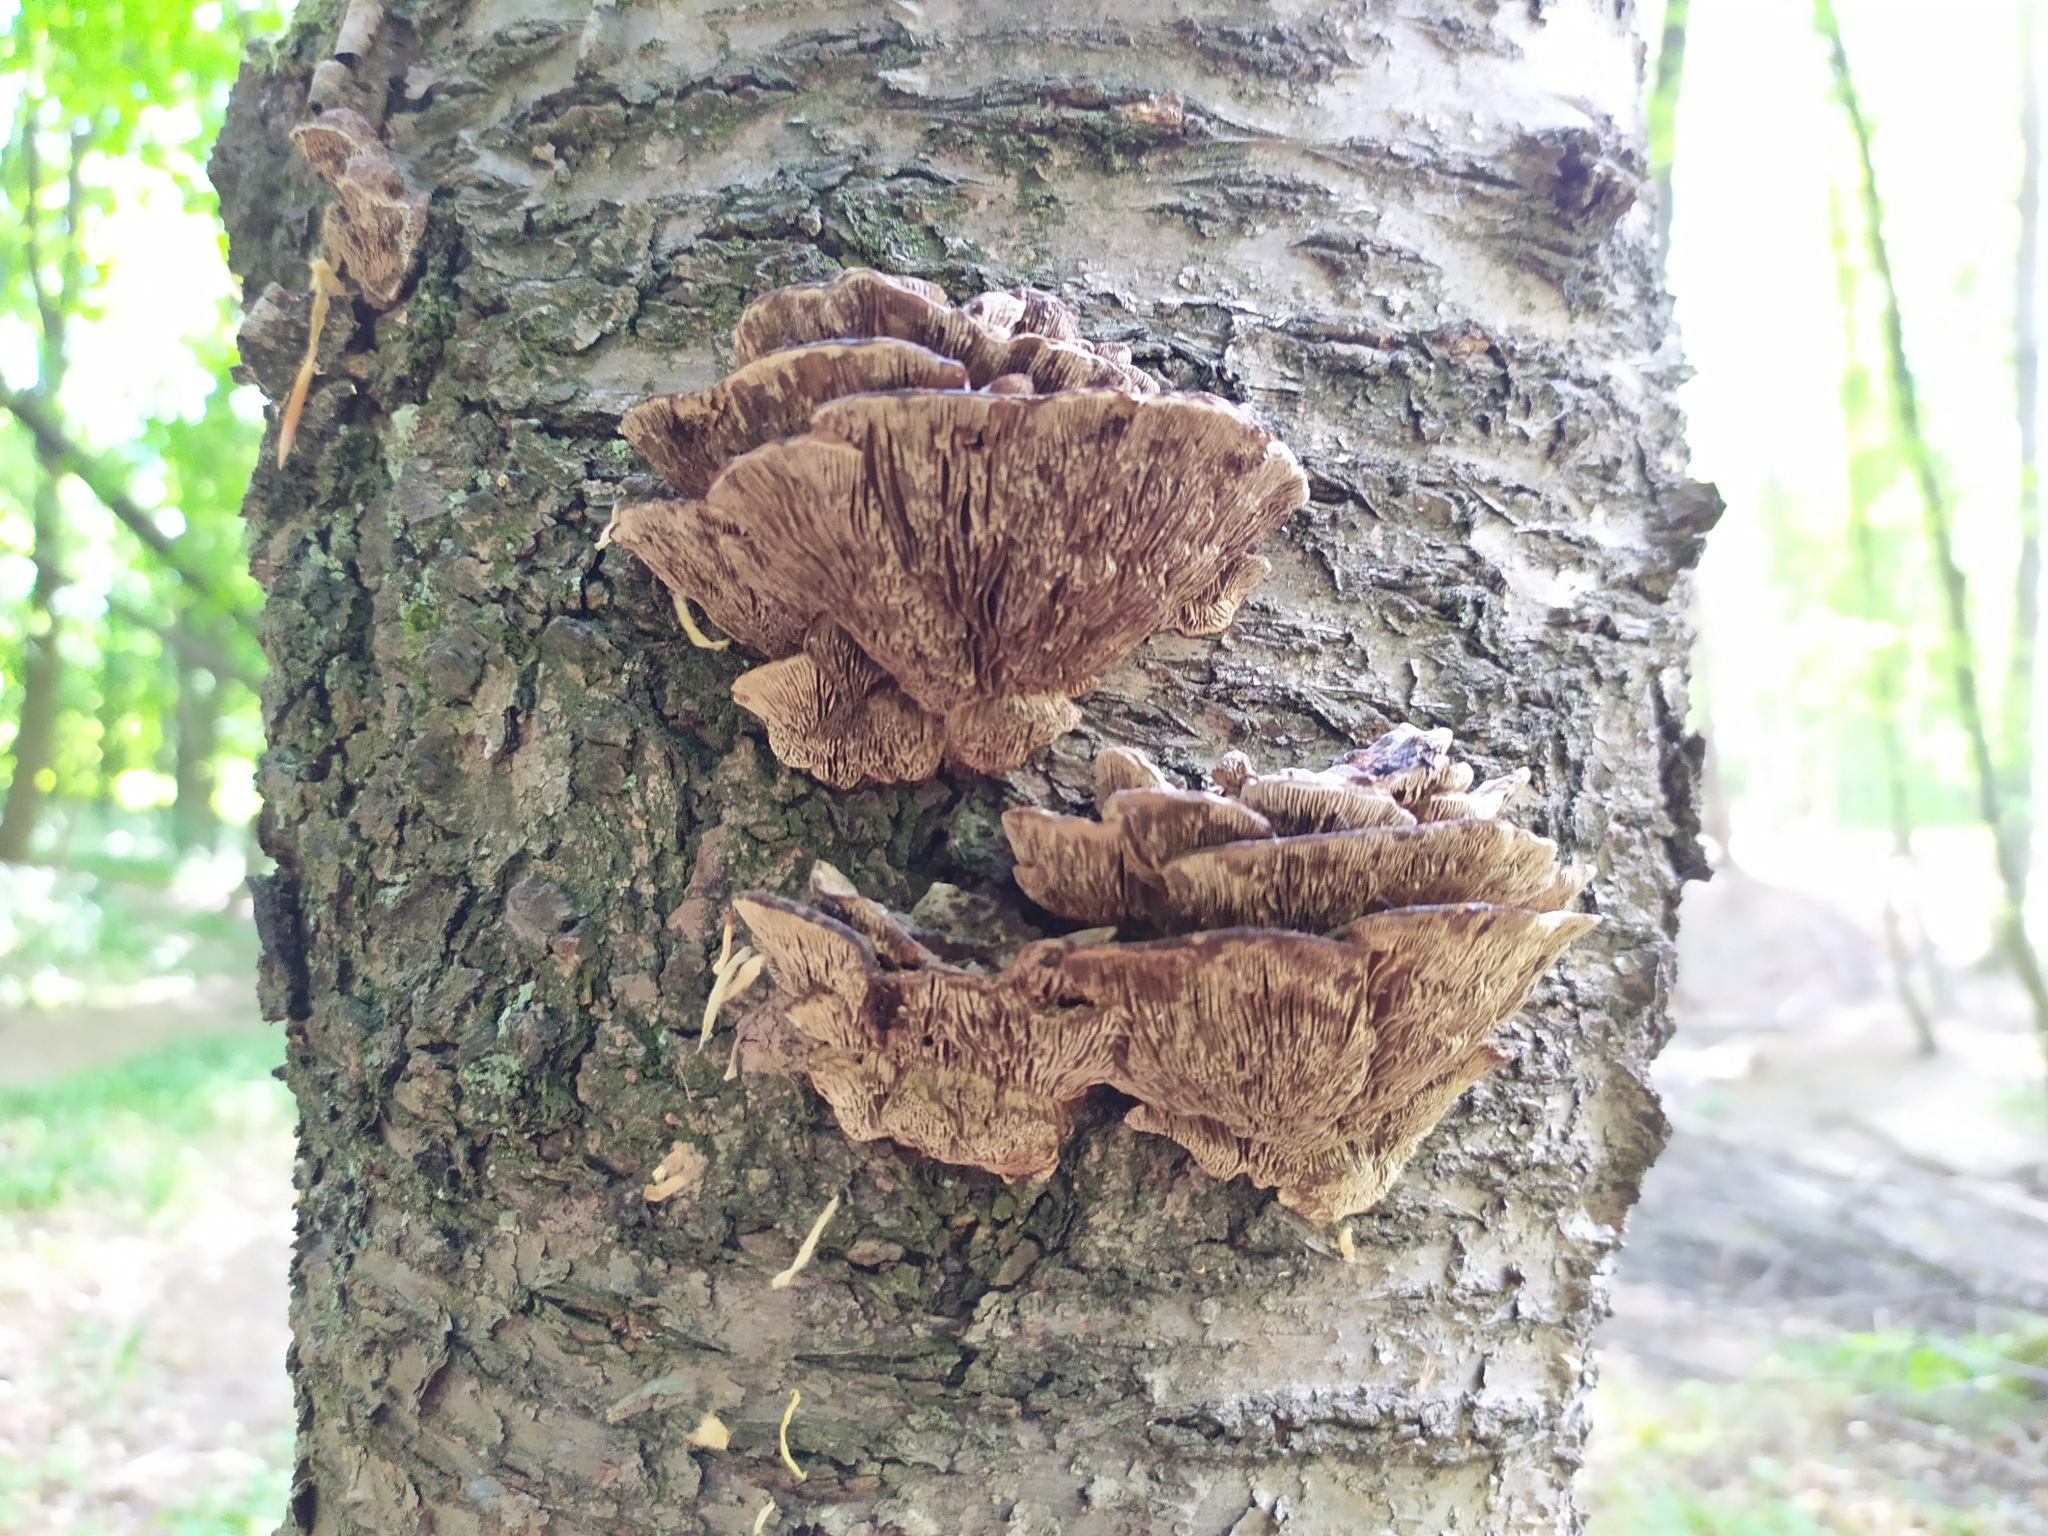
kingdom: Fungi
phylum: Basidiomycota
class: Agaricomycetes
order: Polyporales
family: Polyporaceae
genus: Daedaleopsis
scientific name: Daedaleopsis tricolor
